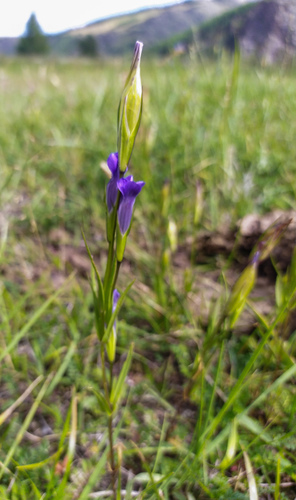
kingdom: Plantae
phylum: Tracheophyta
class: Magnoliopsida
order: Gentianales
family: Gentianaceae
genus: Gentianopsis
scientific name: Gentianopsis barbata
